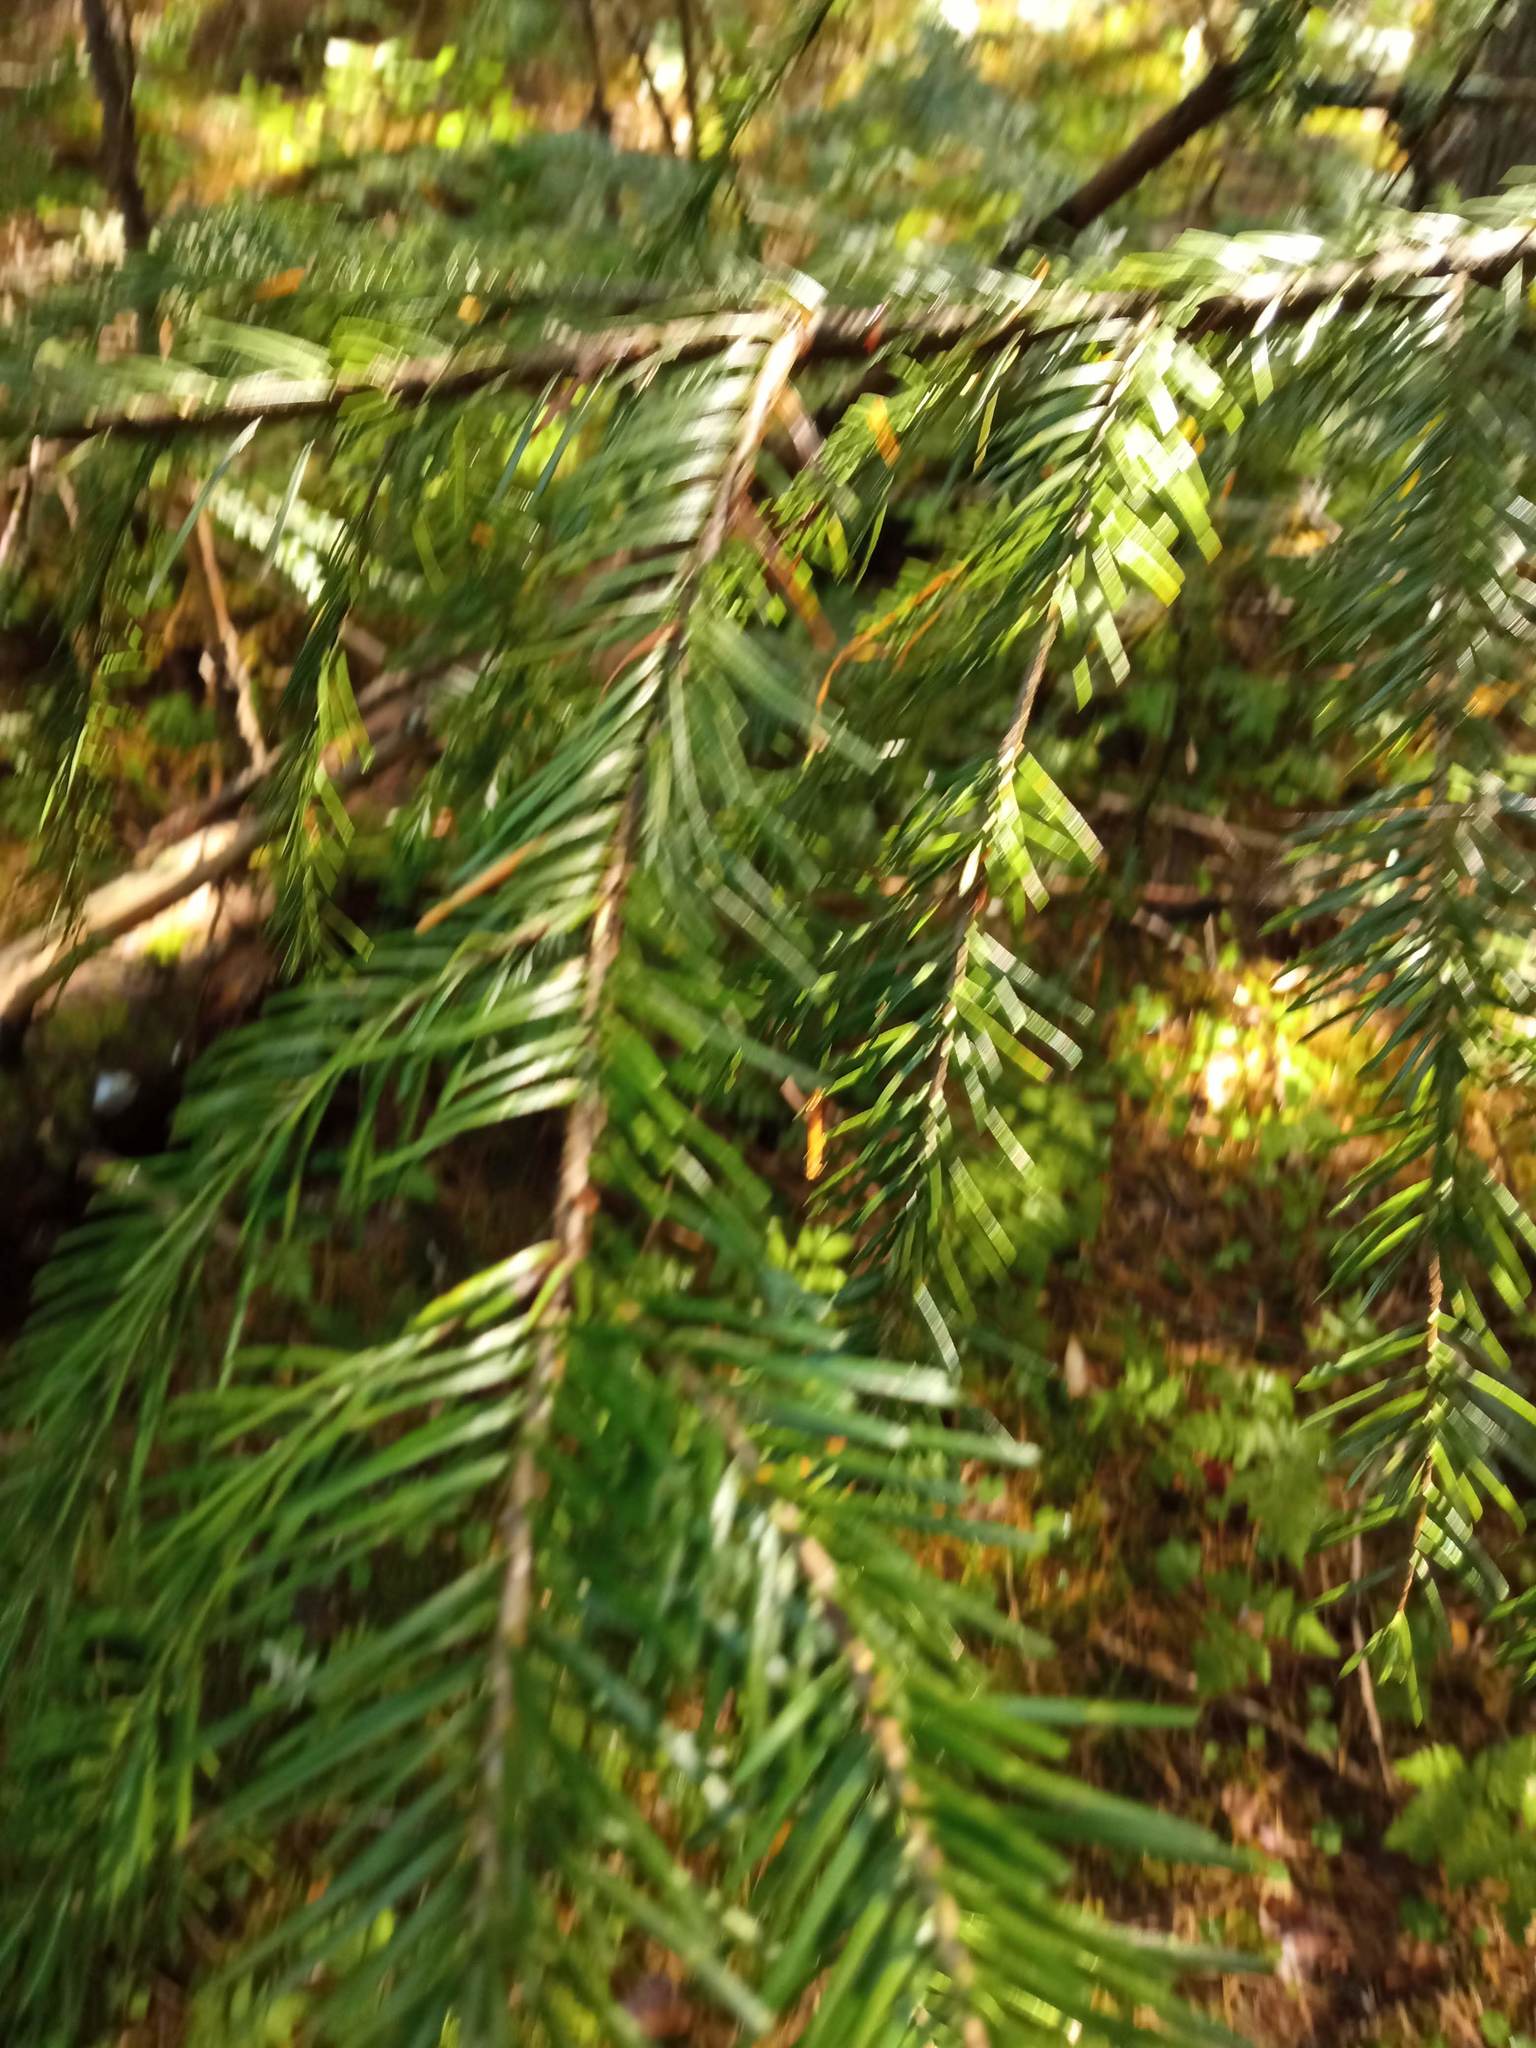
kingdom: Plantae
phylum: Tracheophyta
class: Pinopsida
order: Pinales
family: Pinaceae
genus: Abies
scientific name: Abies sibirica
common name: Siberian fir
